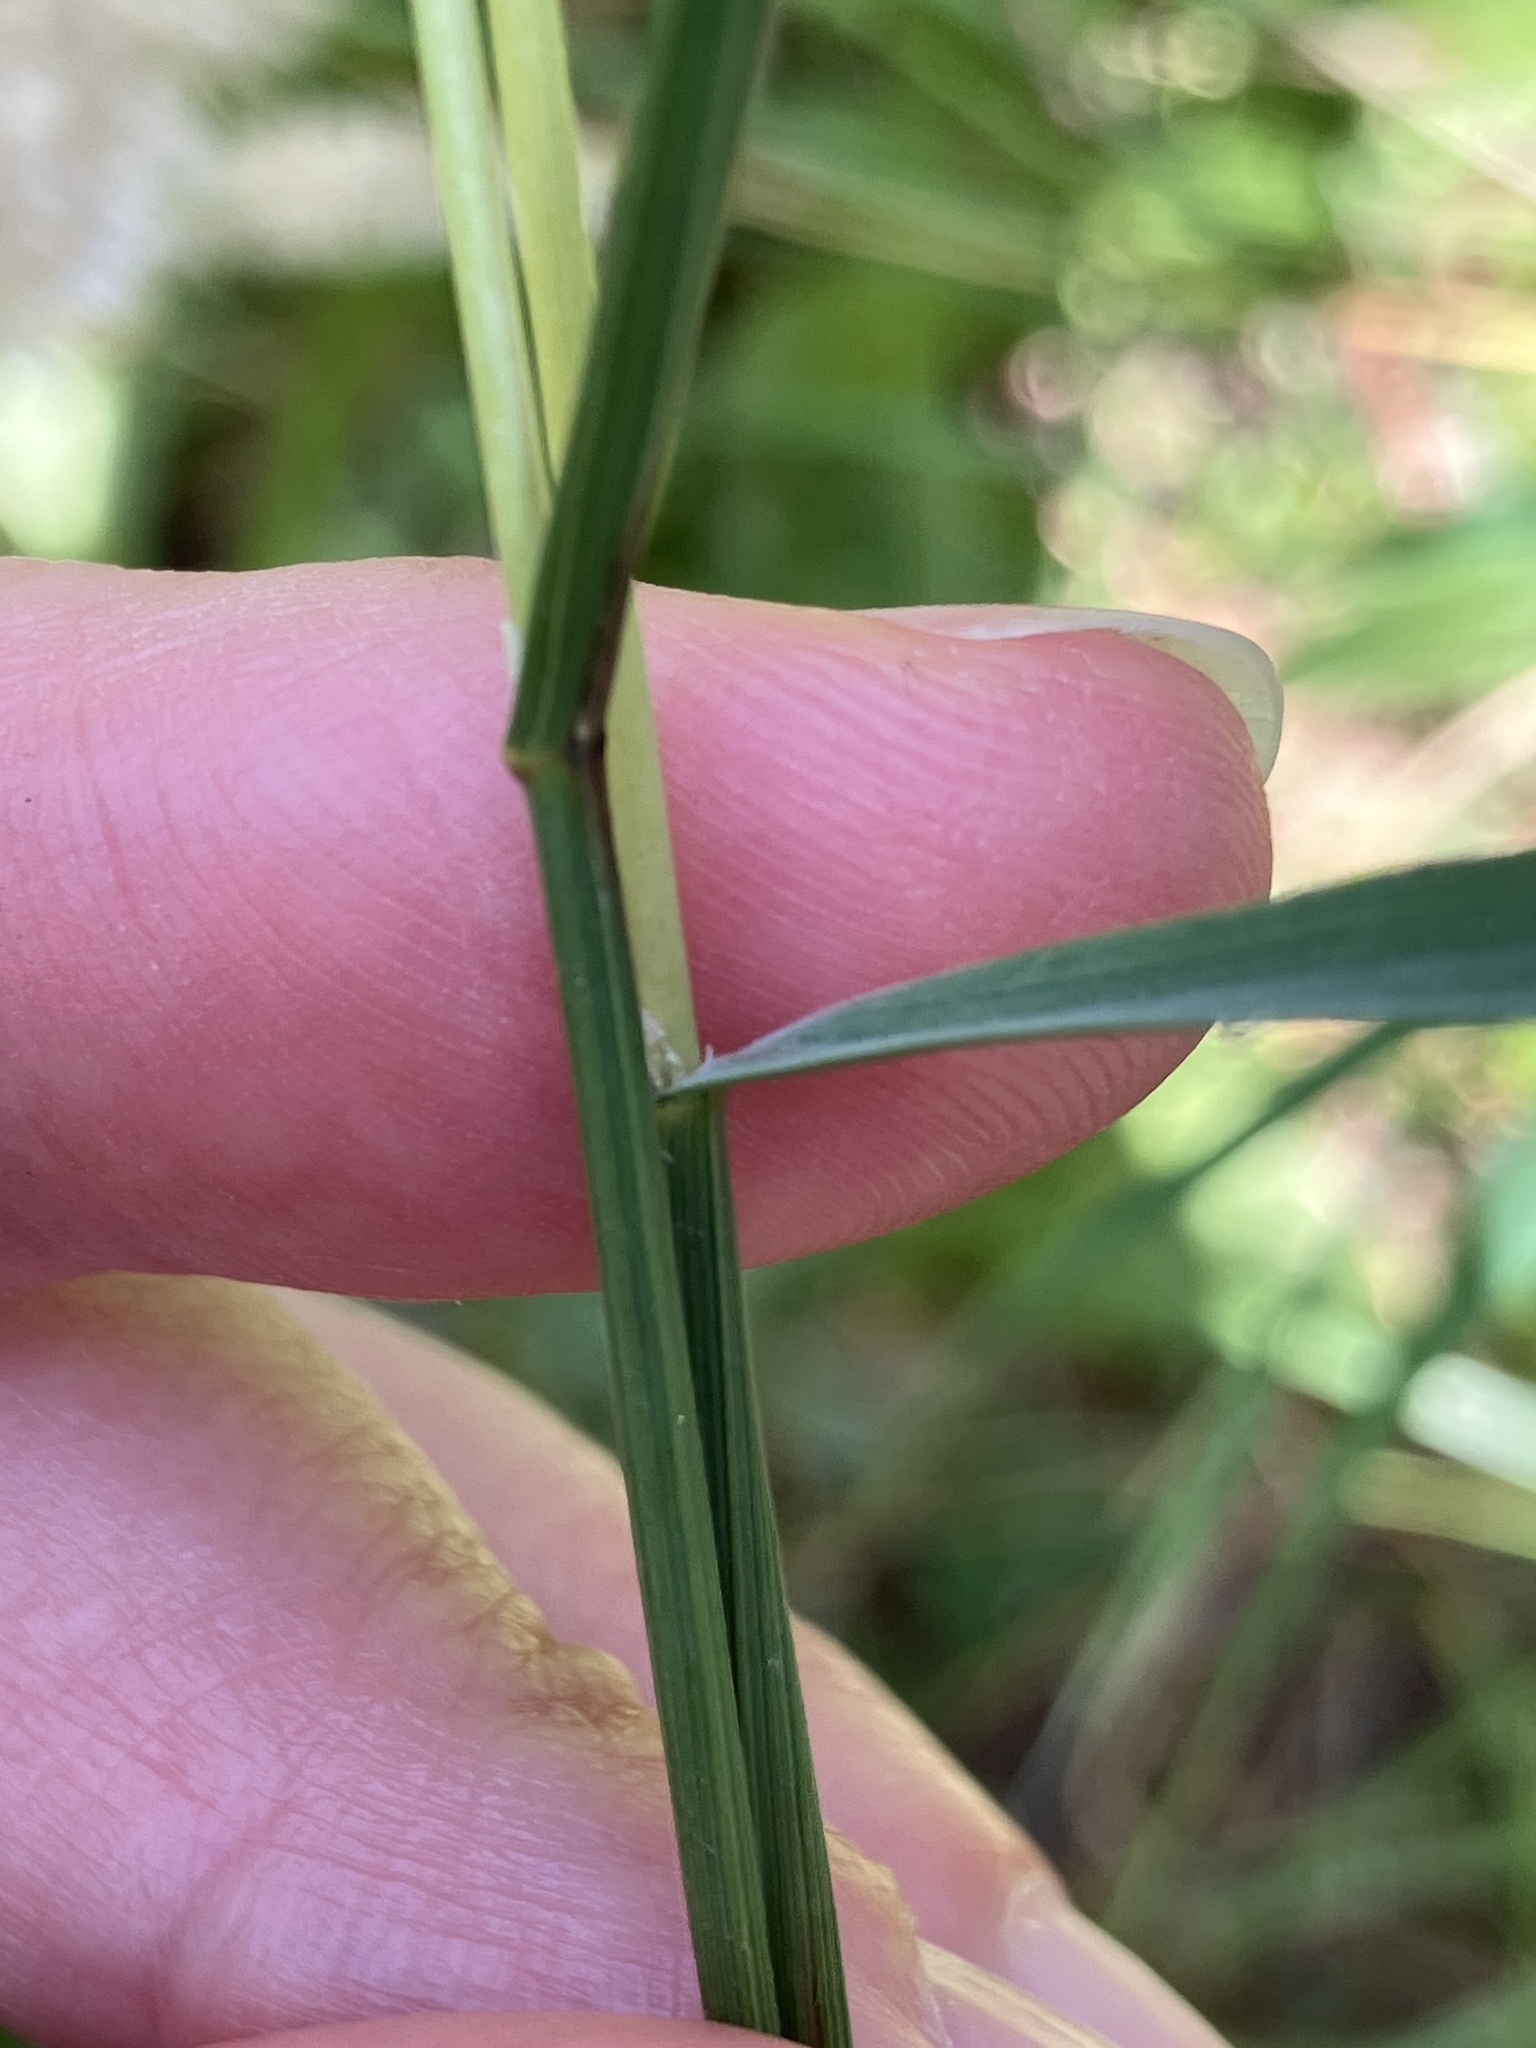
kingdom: Plantae
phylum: Tracheophyta
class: Liliopsida
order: Poales
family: Poaceae
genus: Melica
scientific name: Melica transsilvanica
